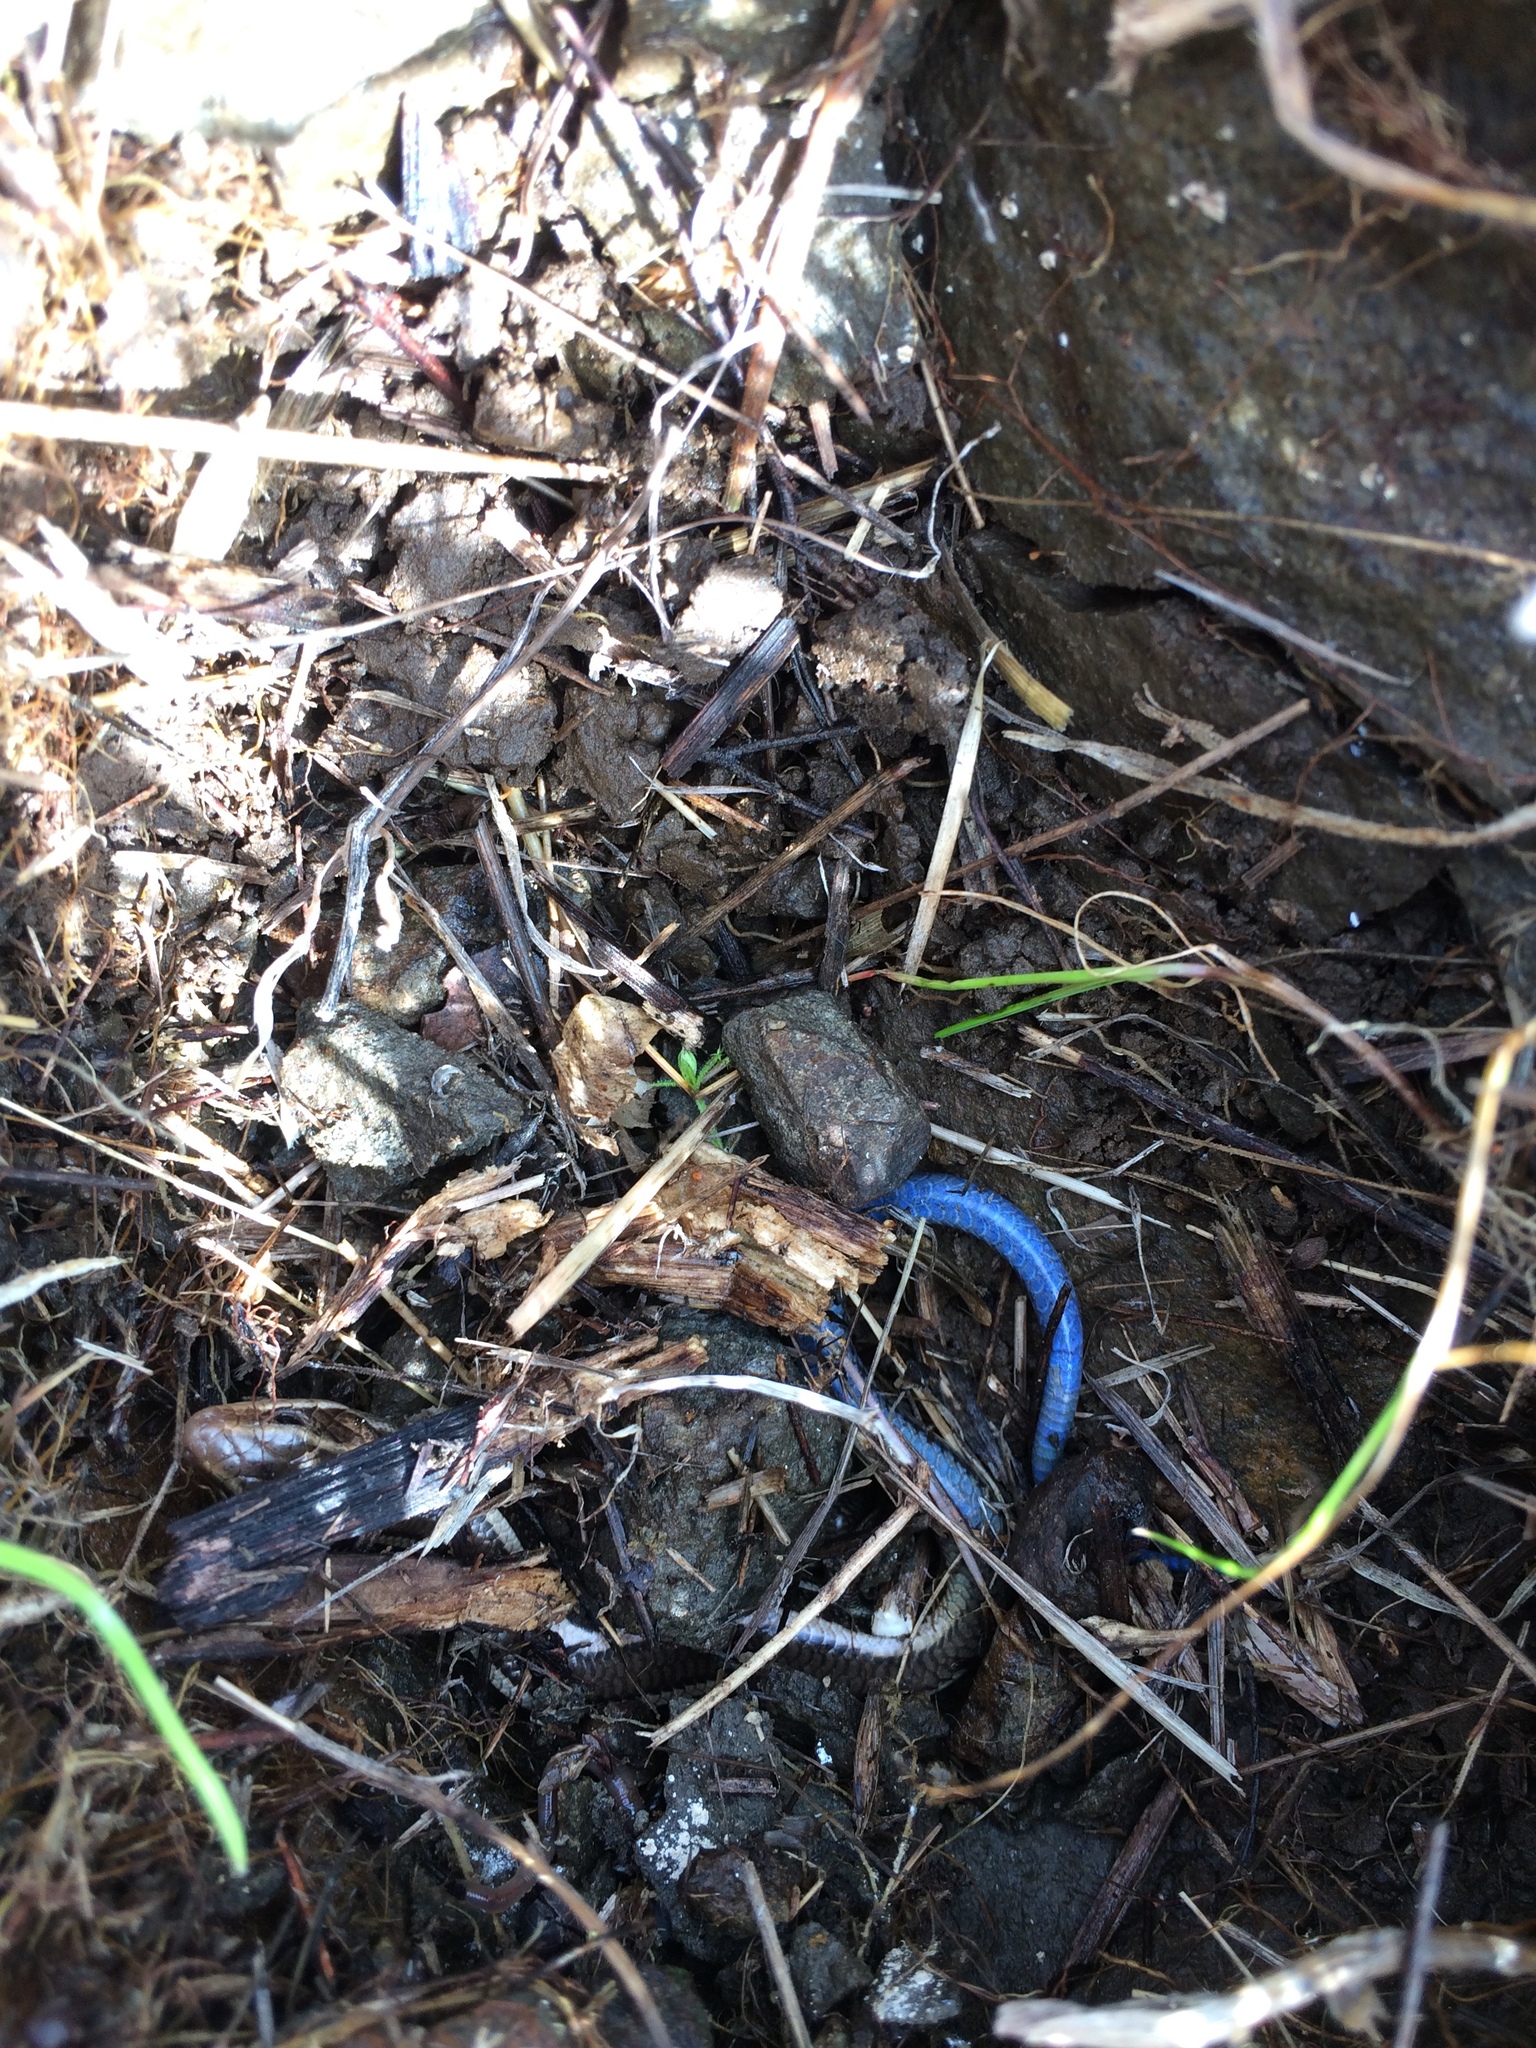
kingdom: Animalia
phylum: Chordata
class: Squamata
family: Scincidae
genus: Plestiodon
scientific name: Plestiodon skiltonianus
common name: Coronado island skink [interparietalis]
